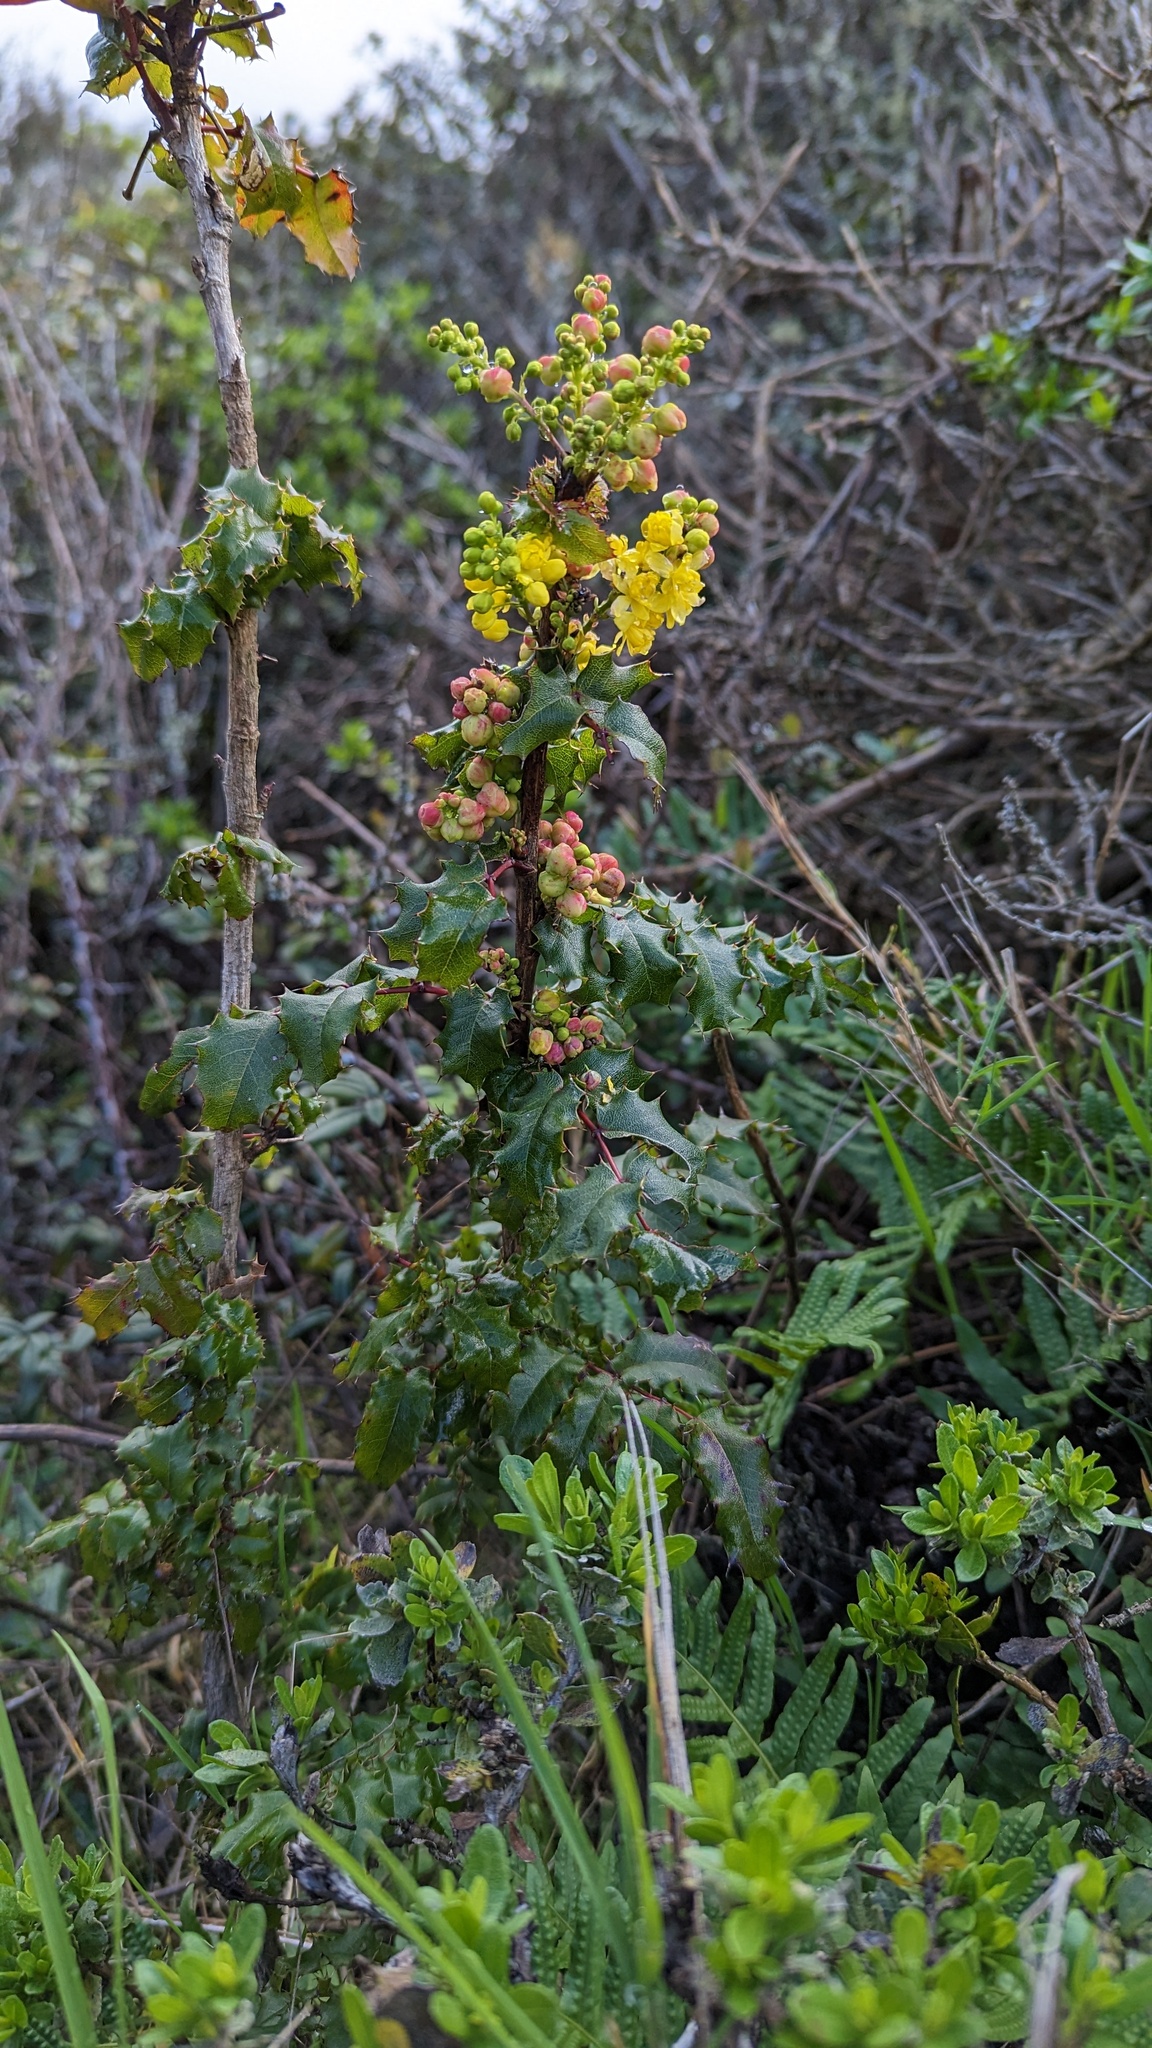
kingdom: Plantae
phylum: Tracheophyta
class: Magnoliopsida
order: Ranunculales
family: Berberidaceae
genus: Mahonia
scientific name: Mahonia
